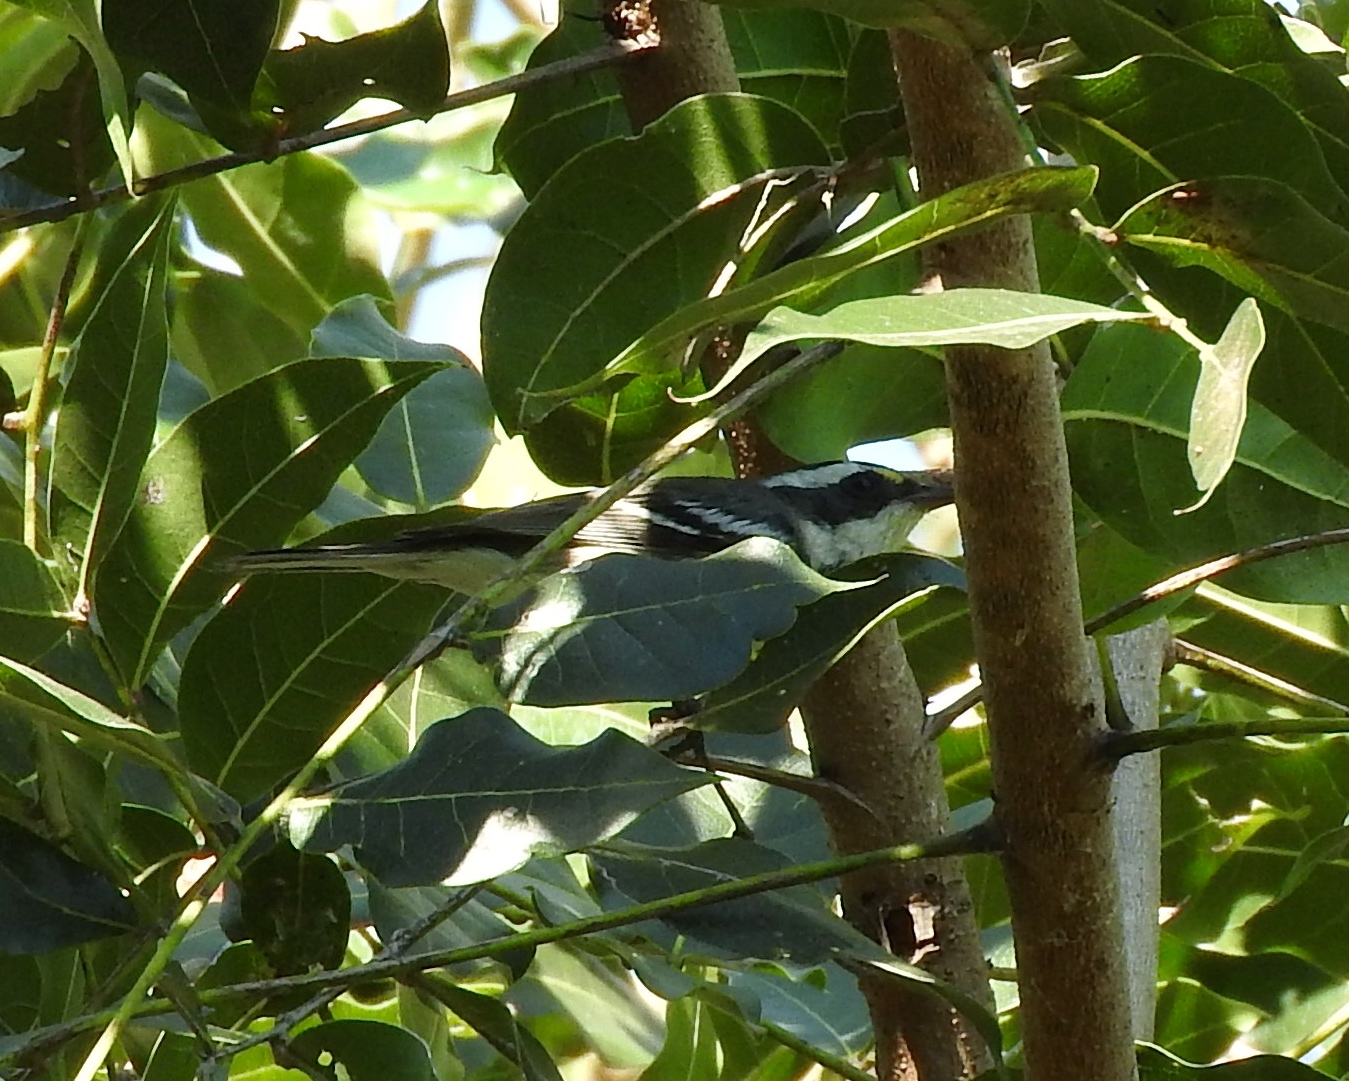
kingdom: Animalia
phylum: Chordata
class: Aves
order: Passeriformes
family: Parulidae
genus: Setophaga
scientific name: Setophaga nigrescens
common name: Black-throated gray warbler
